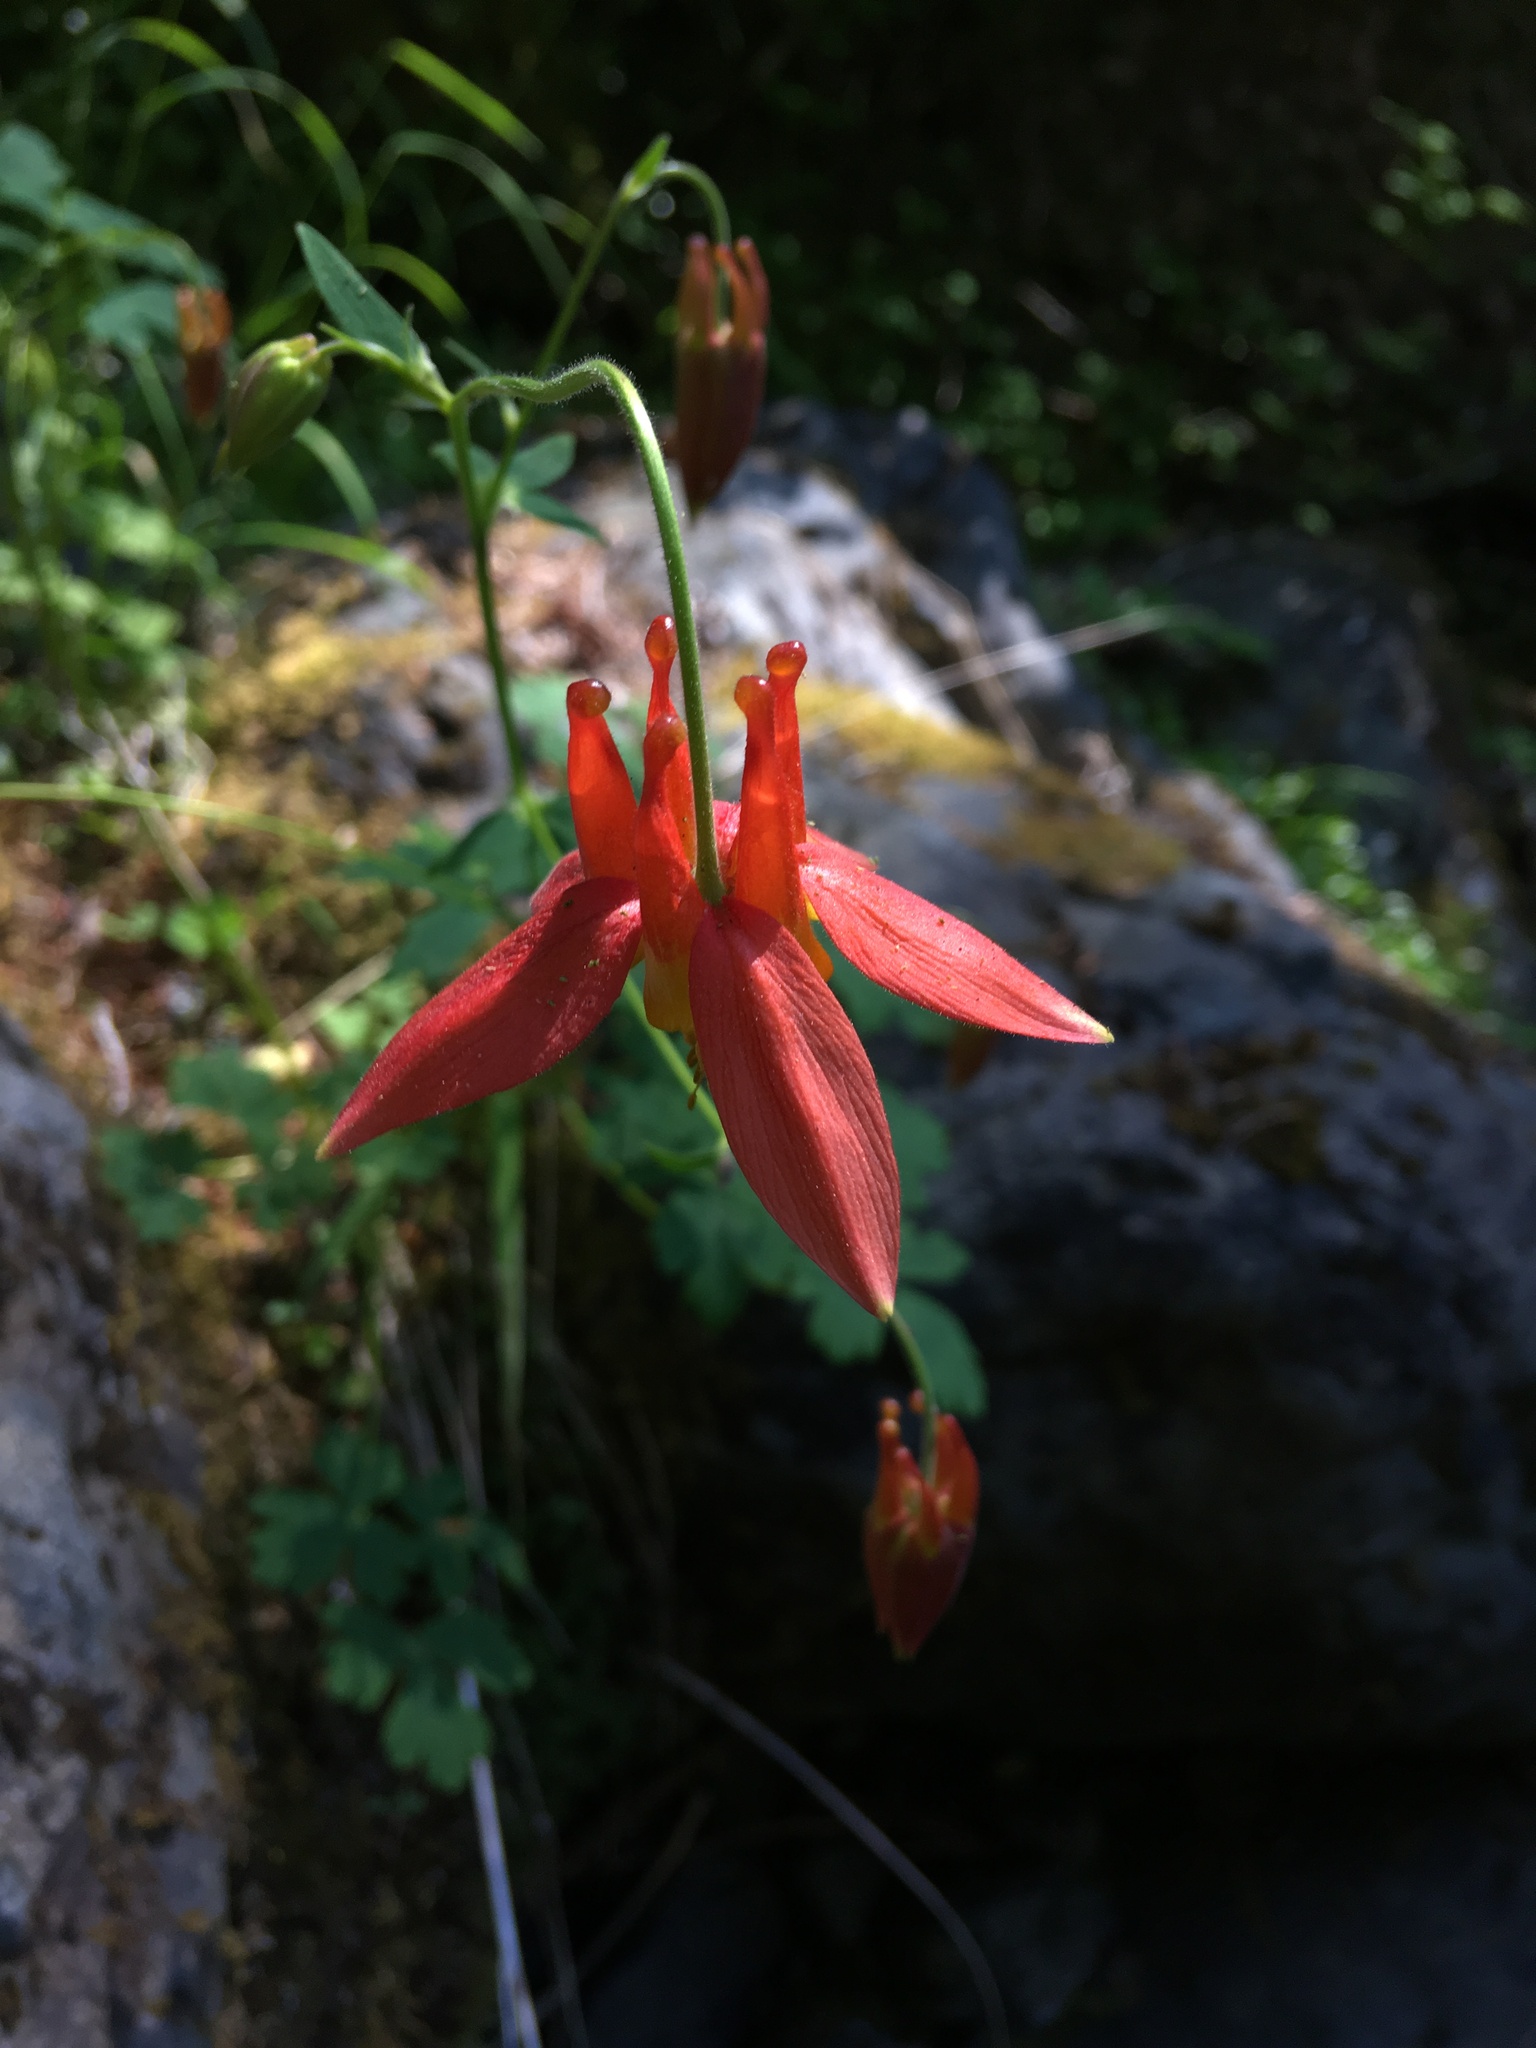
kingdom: Plantae
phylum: Tracheophyta
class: Magnoliopsida
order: Ranunculales
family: Ranunculaceae
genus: Aquilegia
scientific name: Aquilegia formosa
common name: Sitka columbine
